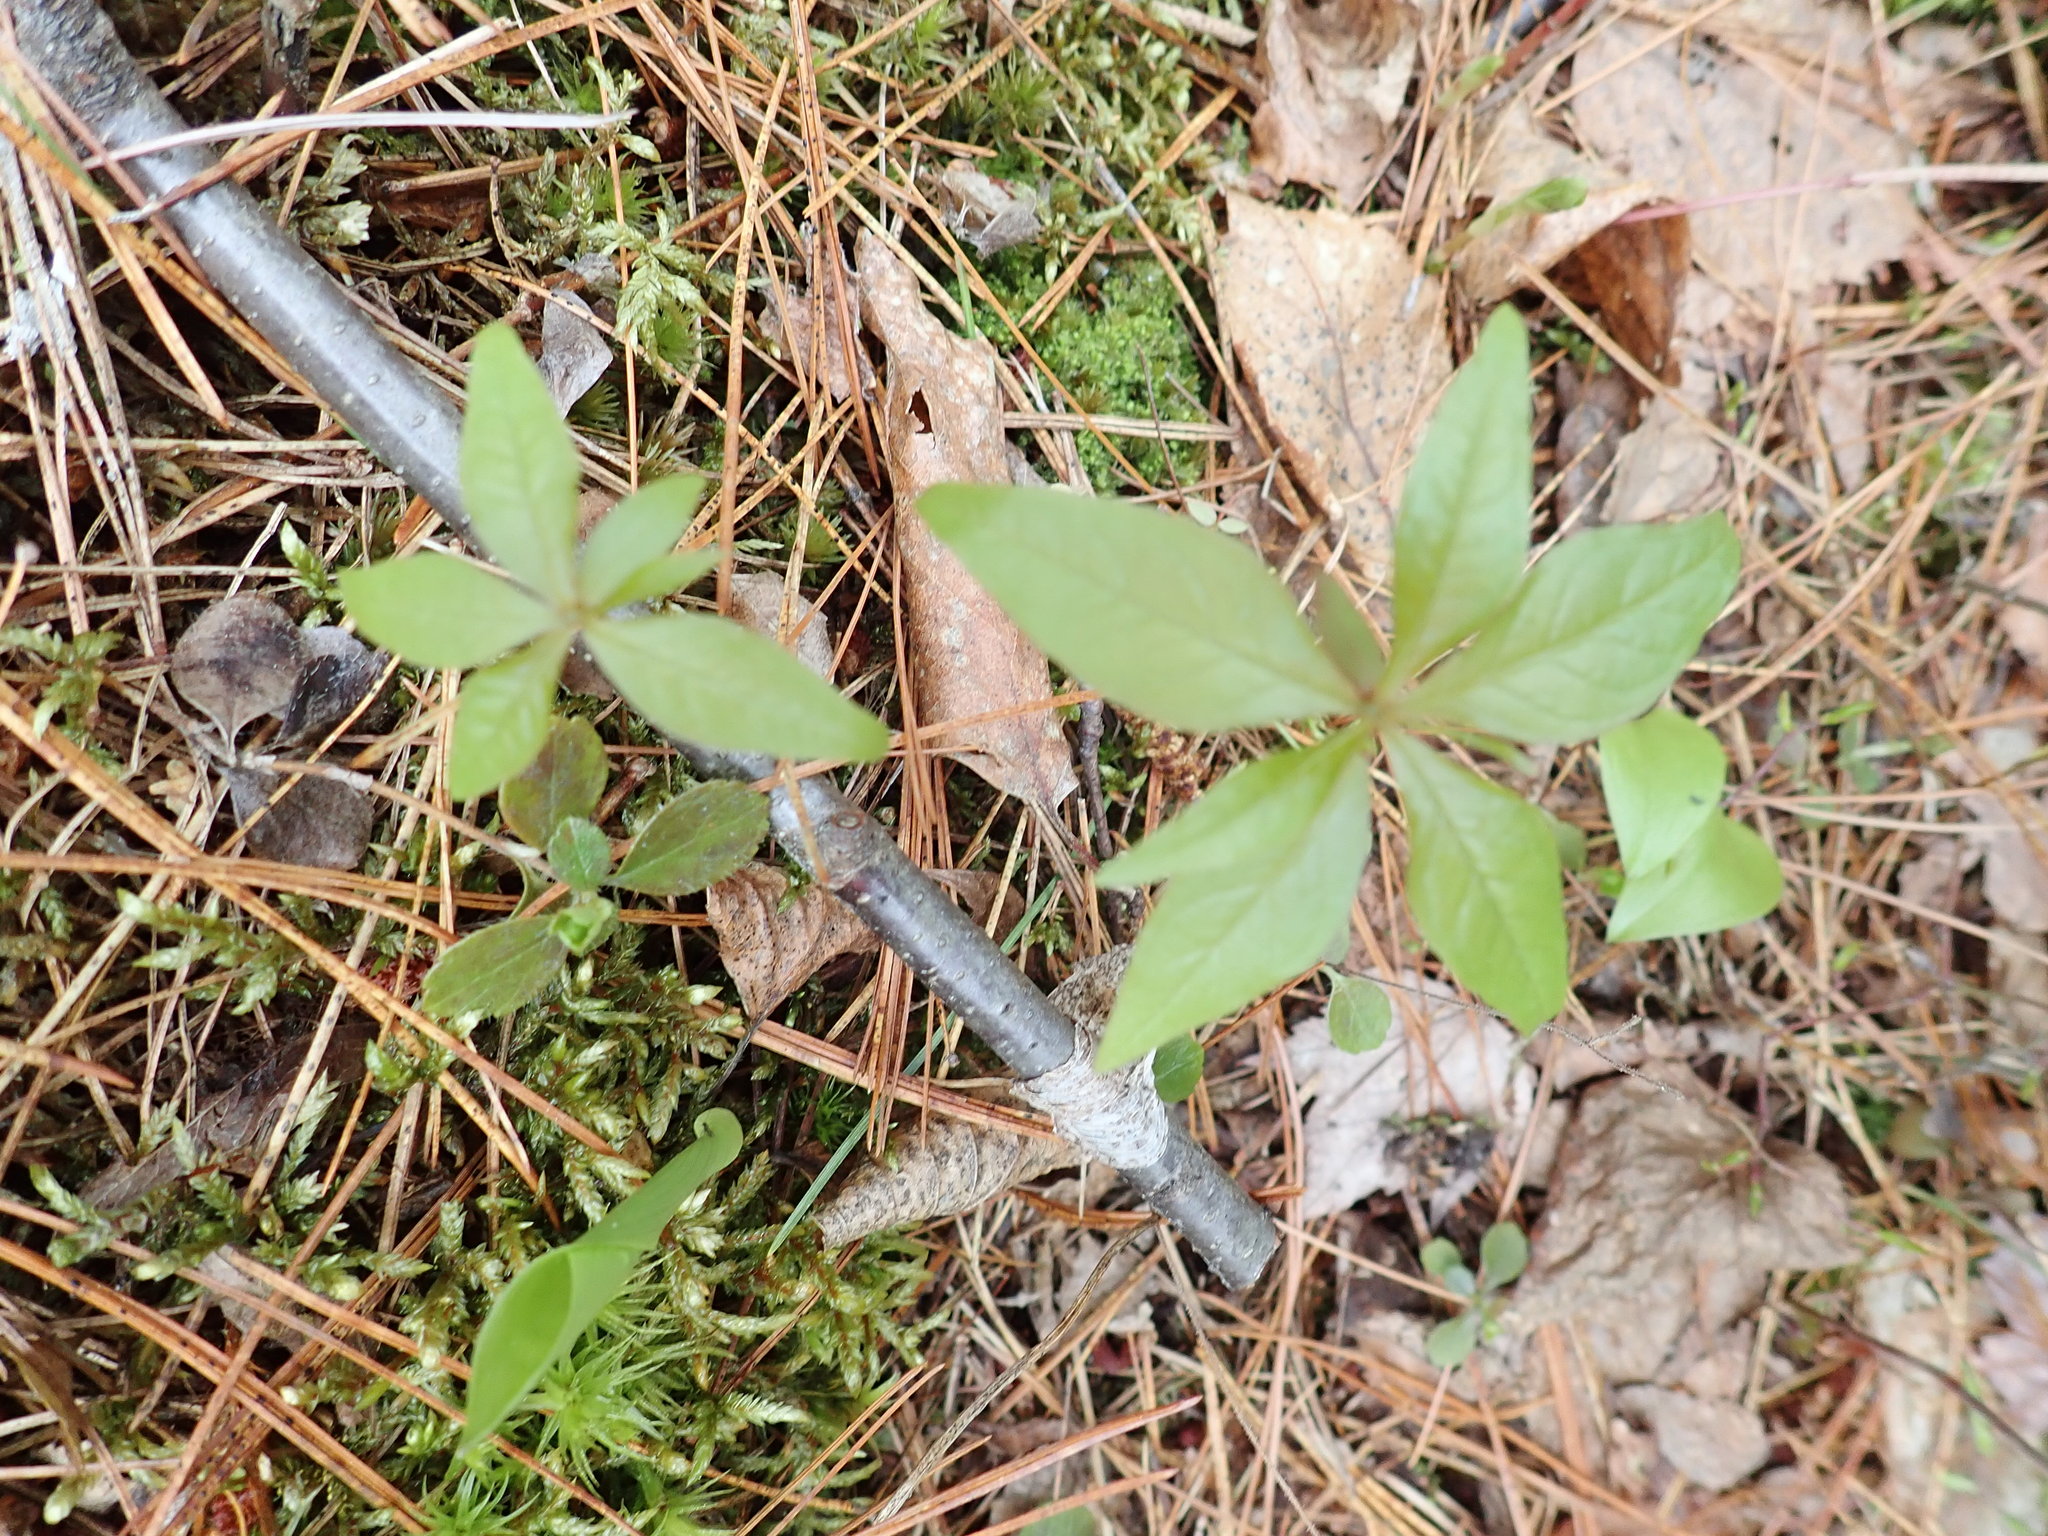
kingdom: Plantae
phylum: Tracheophyta
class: Magnoliopsida
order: Ericales
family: Primulaceae
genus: Lysimachia
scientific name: Lysimachia borealis
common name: American starflower
